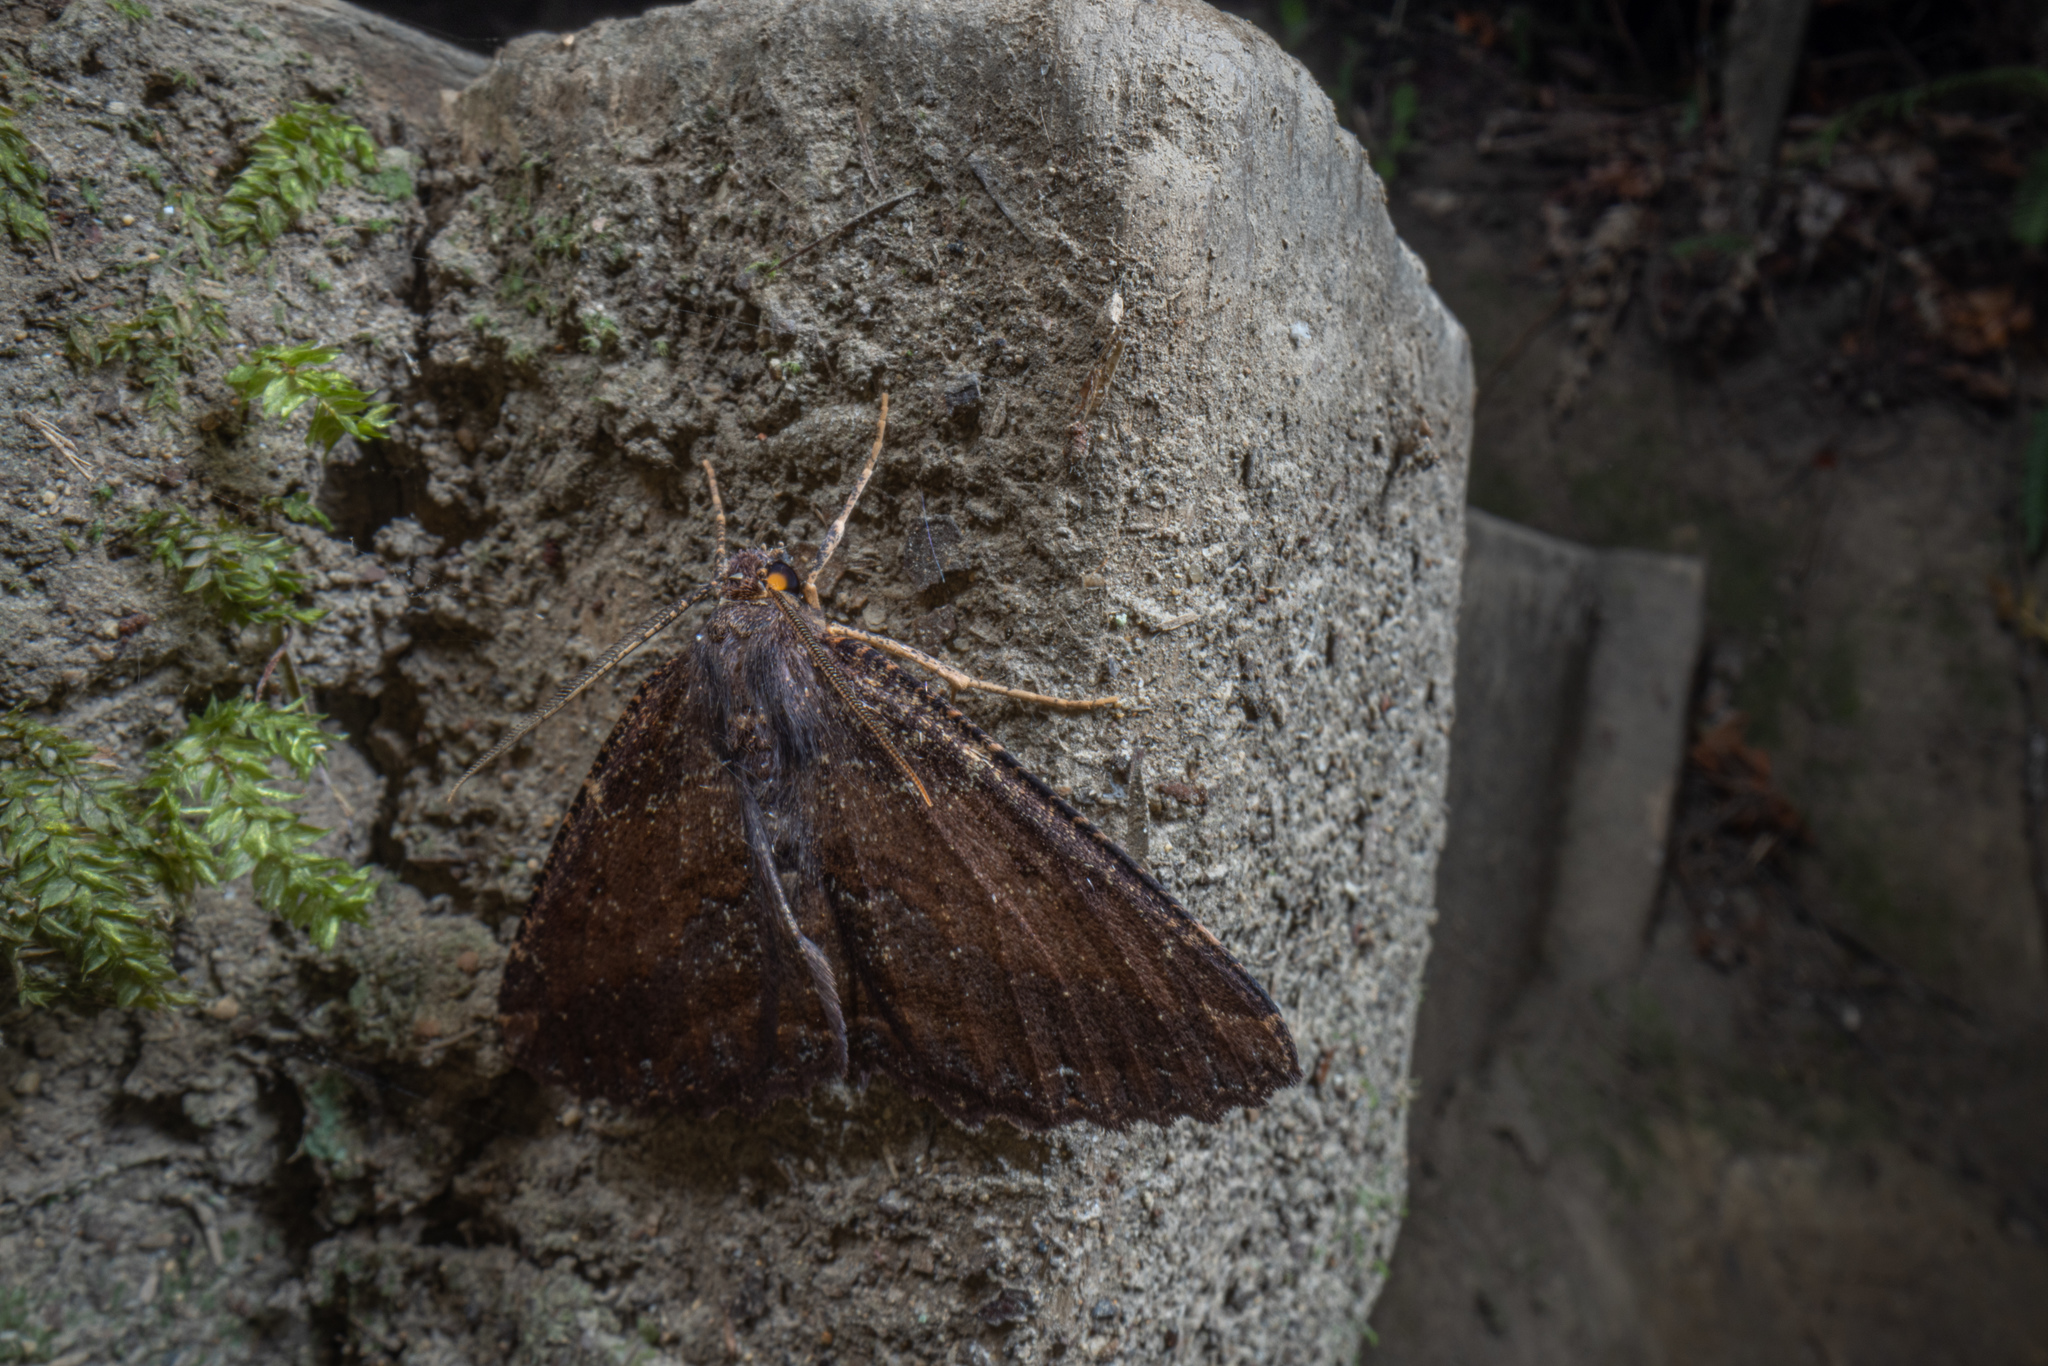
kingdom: Animalia
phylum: Arthropoda
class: Insecta
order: Lepidoptera
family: Geometridae
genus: Gellonia
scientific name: Gellonia dejectaria
